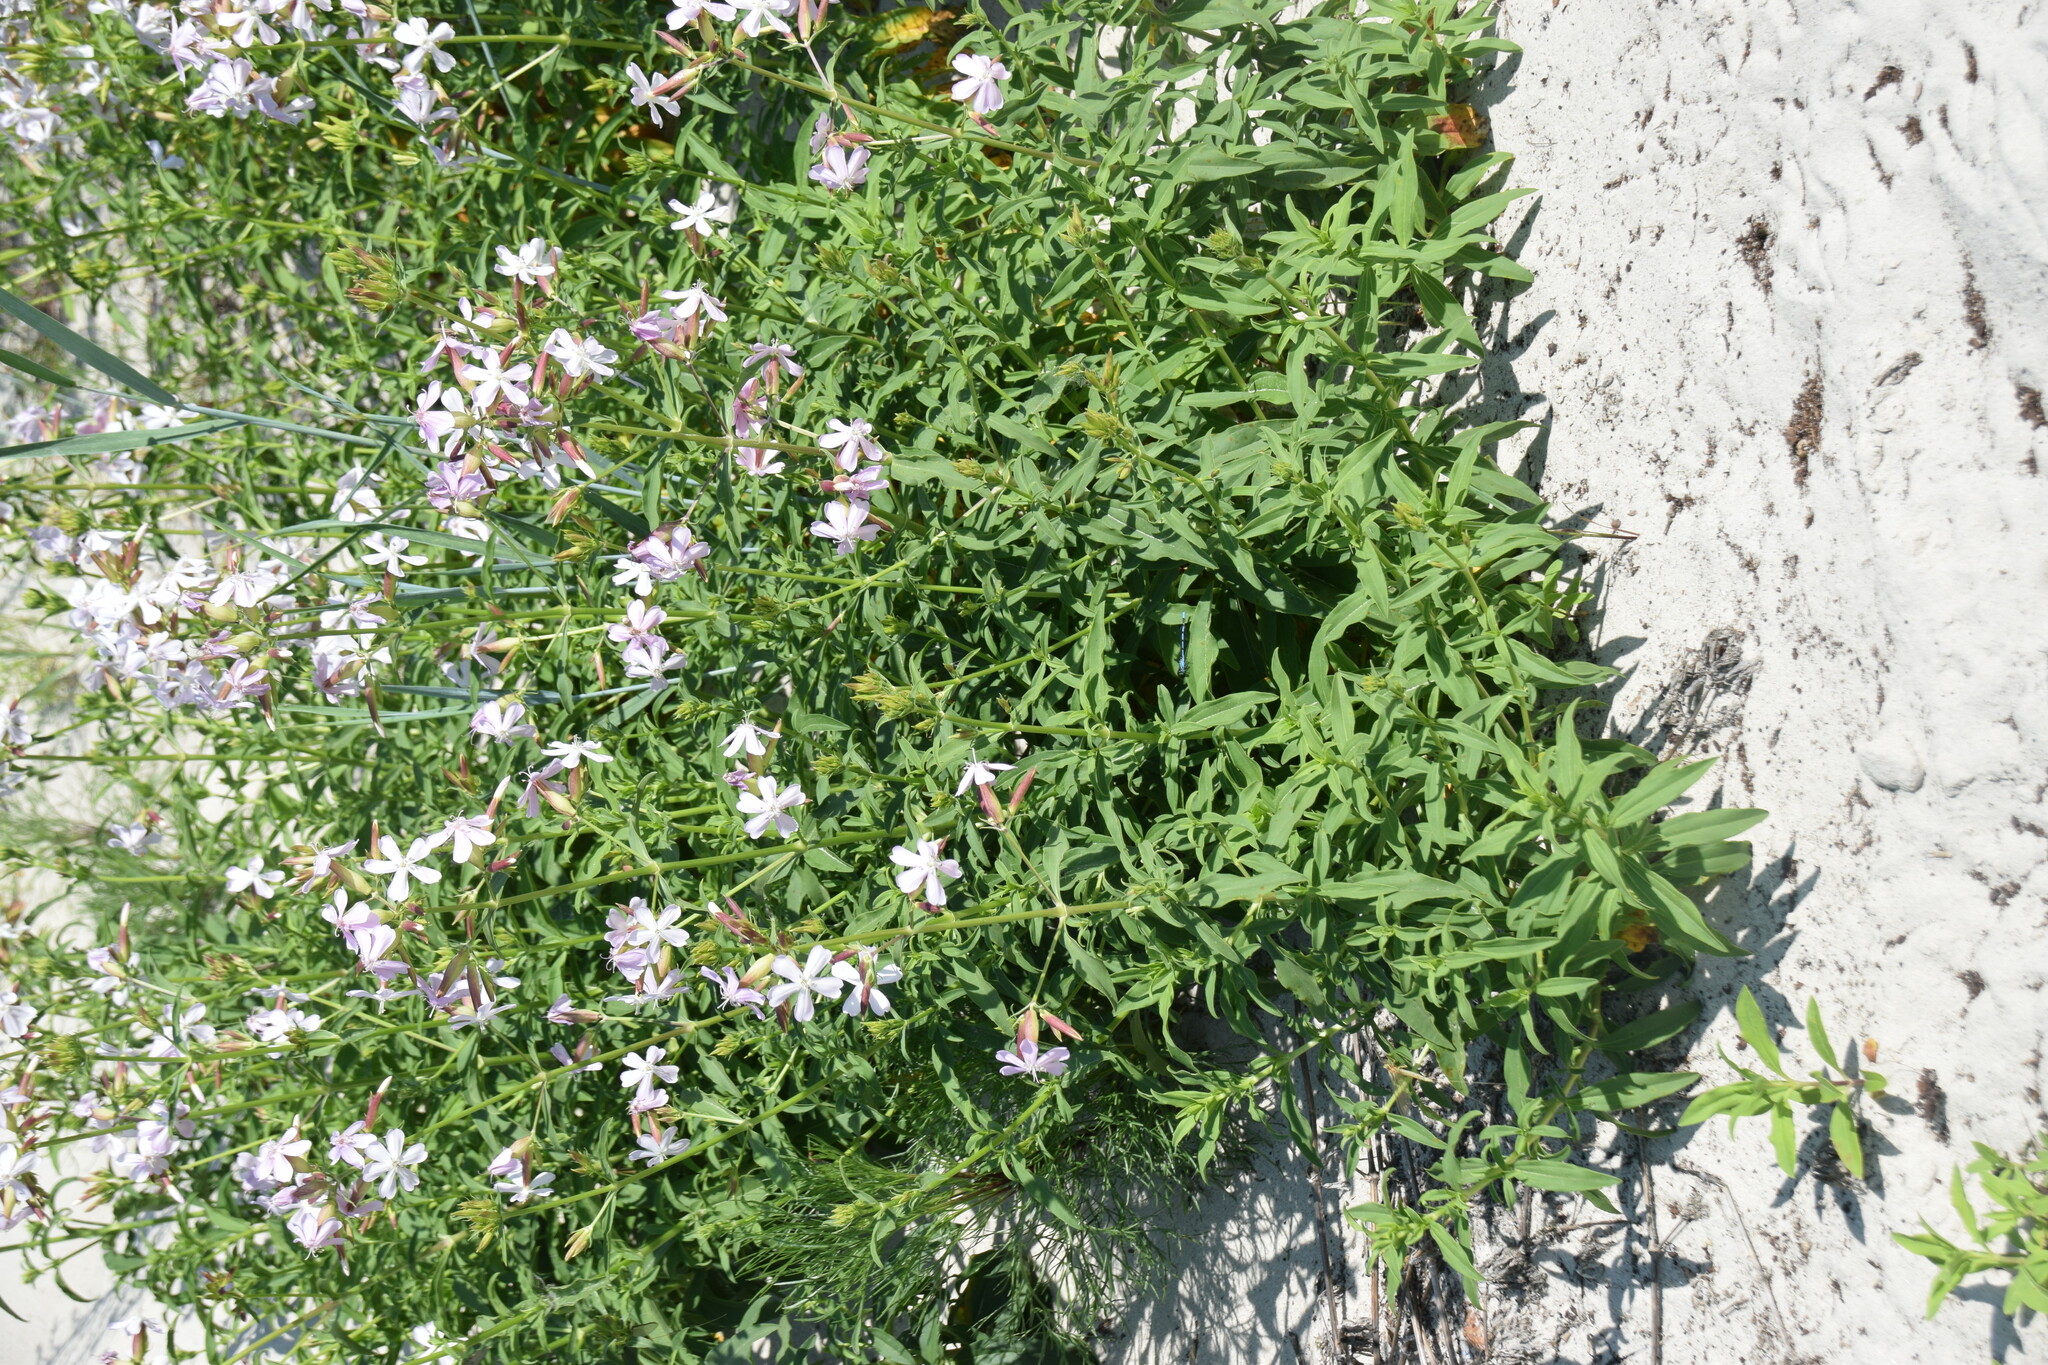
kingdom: Plantae
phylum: Tracheophyta
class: Magnoliopsida
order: Caryophyllales
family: Caryophyllaceae
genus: Saponaria
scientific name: Saponaria officinalis
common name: Soapwort
